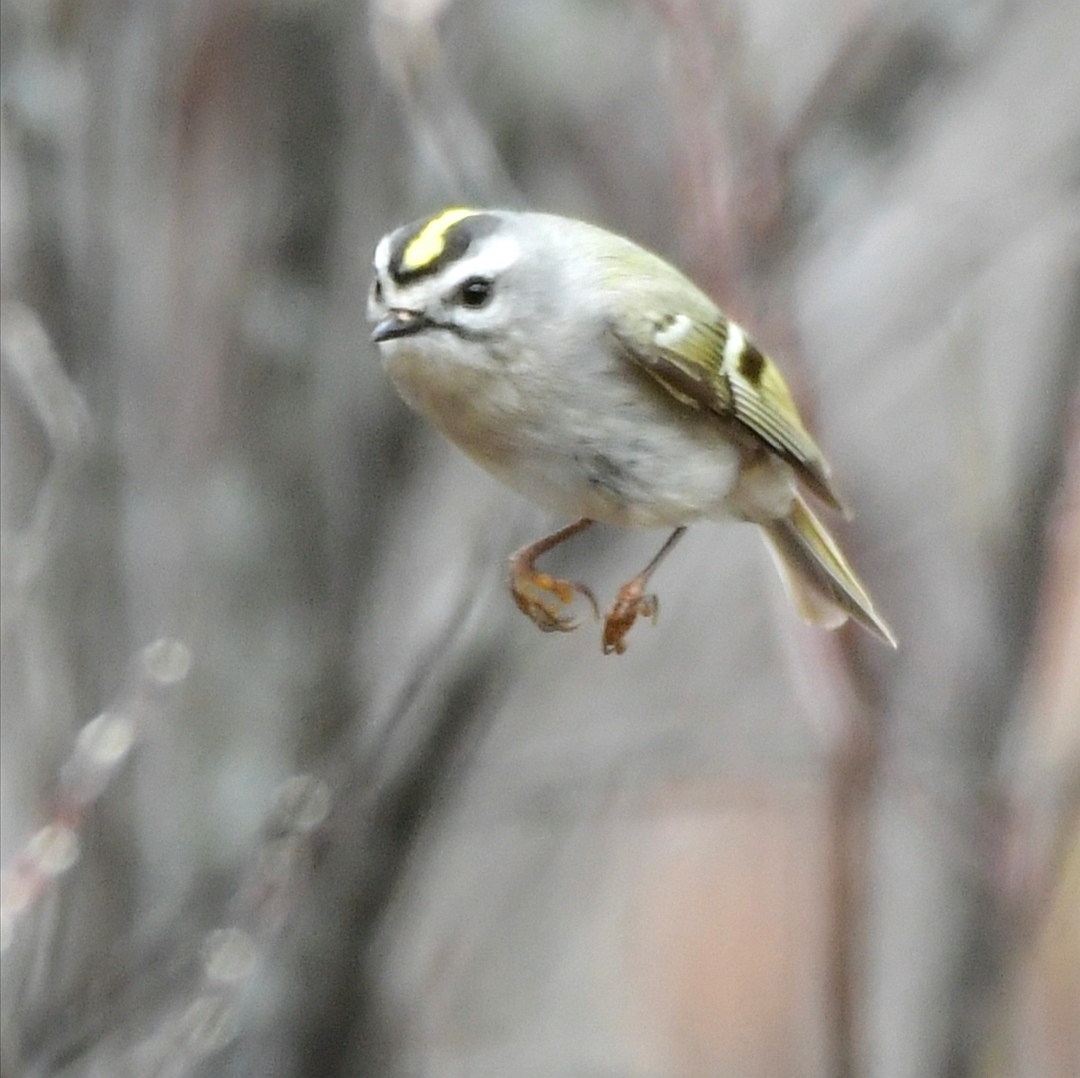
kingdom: Animalia
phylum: Chordata
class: Aves
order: Passeriformes
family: Regulidae
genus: Regulus
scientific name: Regulus satrapa
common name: Golden-crowned kinglet
